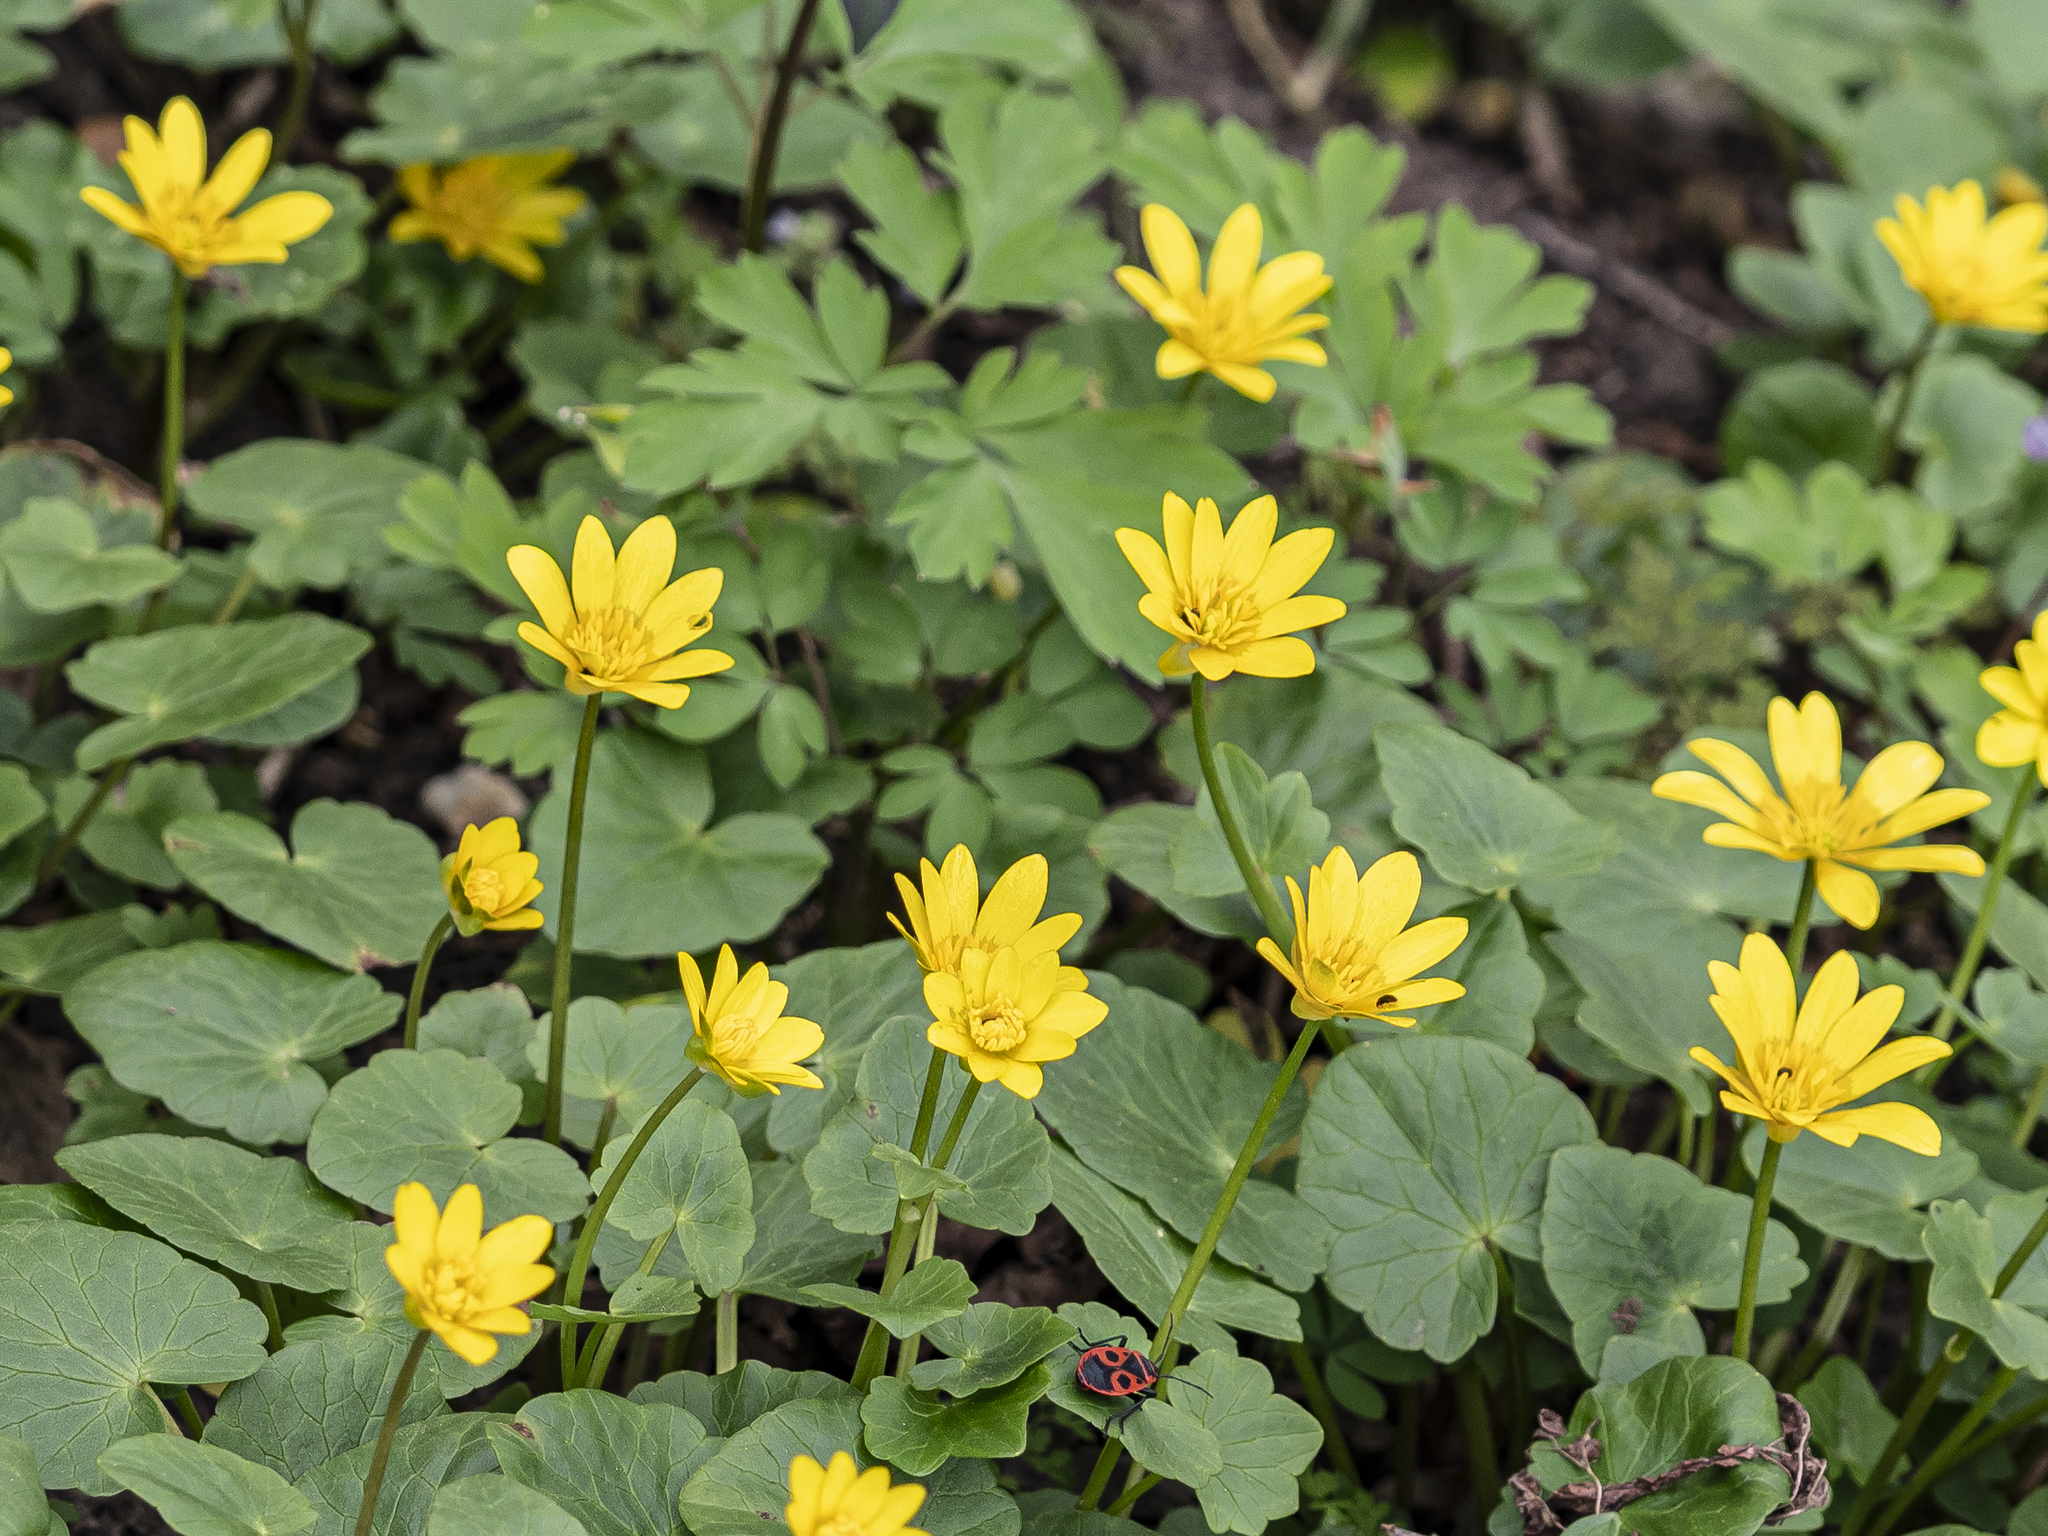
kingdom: Plantae
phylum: Tracheophyta
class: Magnoliopsida
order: Ranunculales
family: Ranunculaceae
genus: Ficaria
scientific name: Ficaria verna
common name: Lesser celandine
